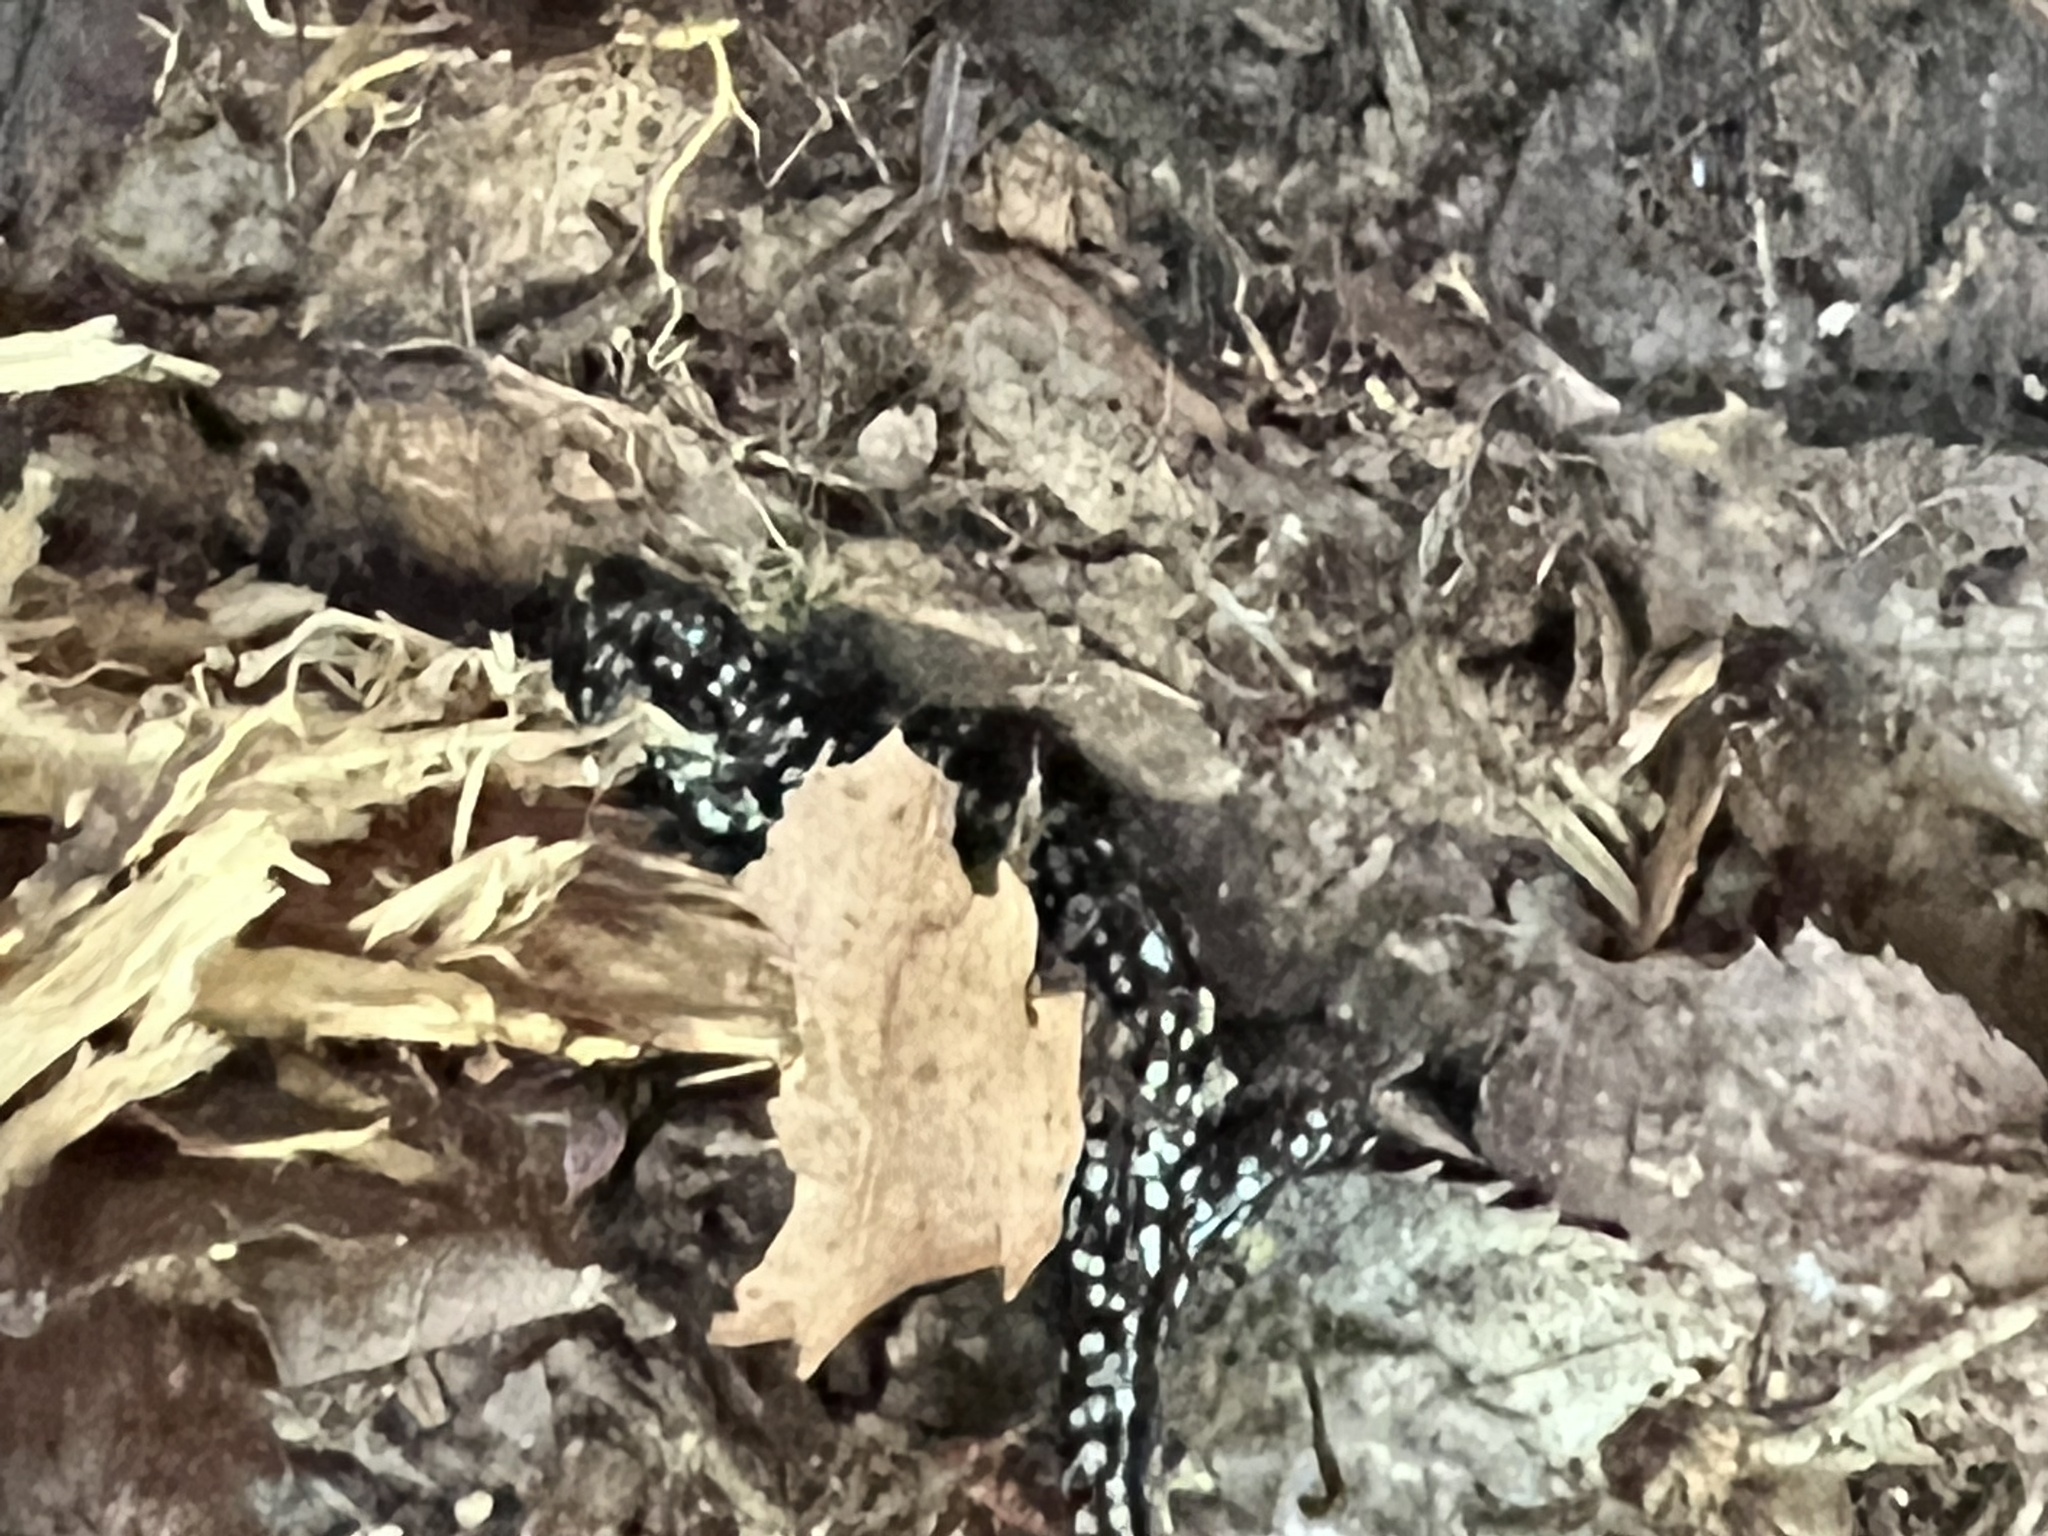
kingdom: Animalia
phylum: Chordata
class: Amphibia
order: Caudata
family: Plethodontidae
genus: Plethodon
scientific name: Plethodon glutinosus
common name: Northern slimy salamander
